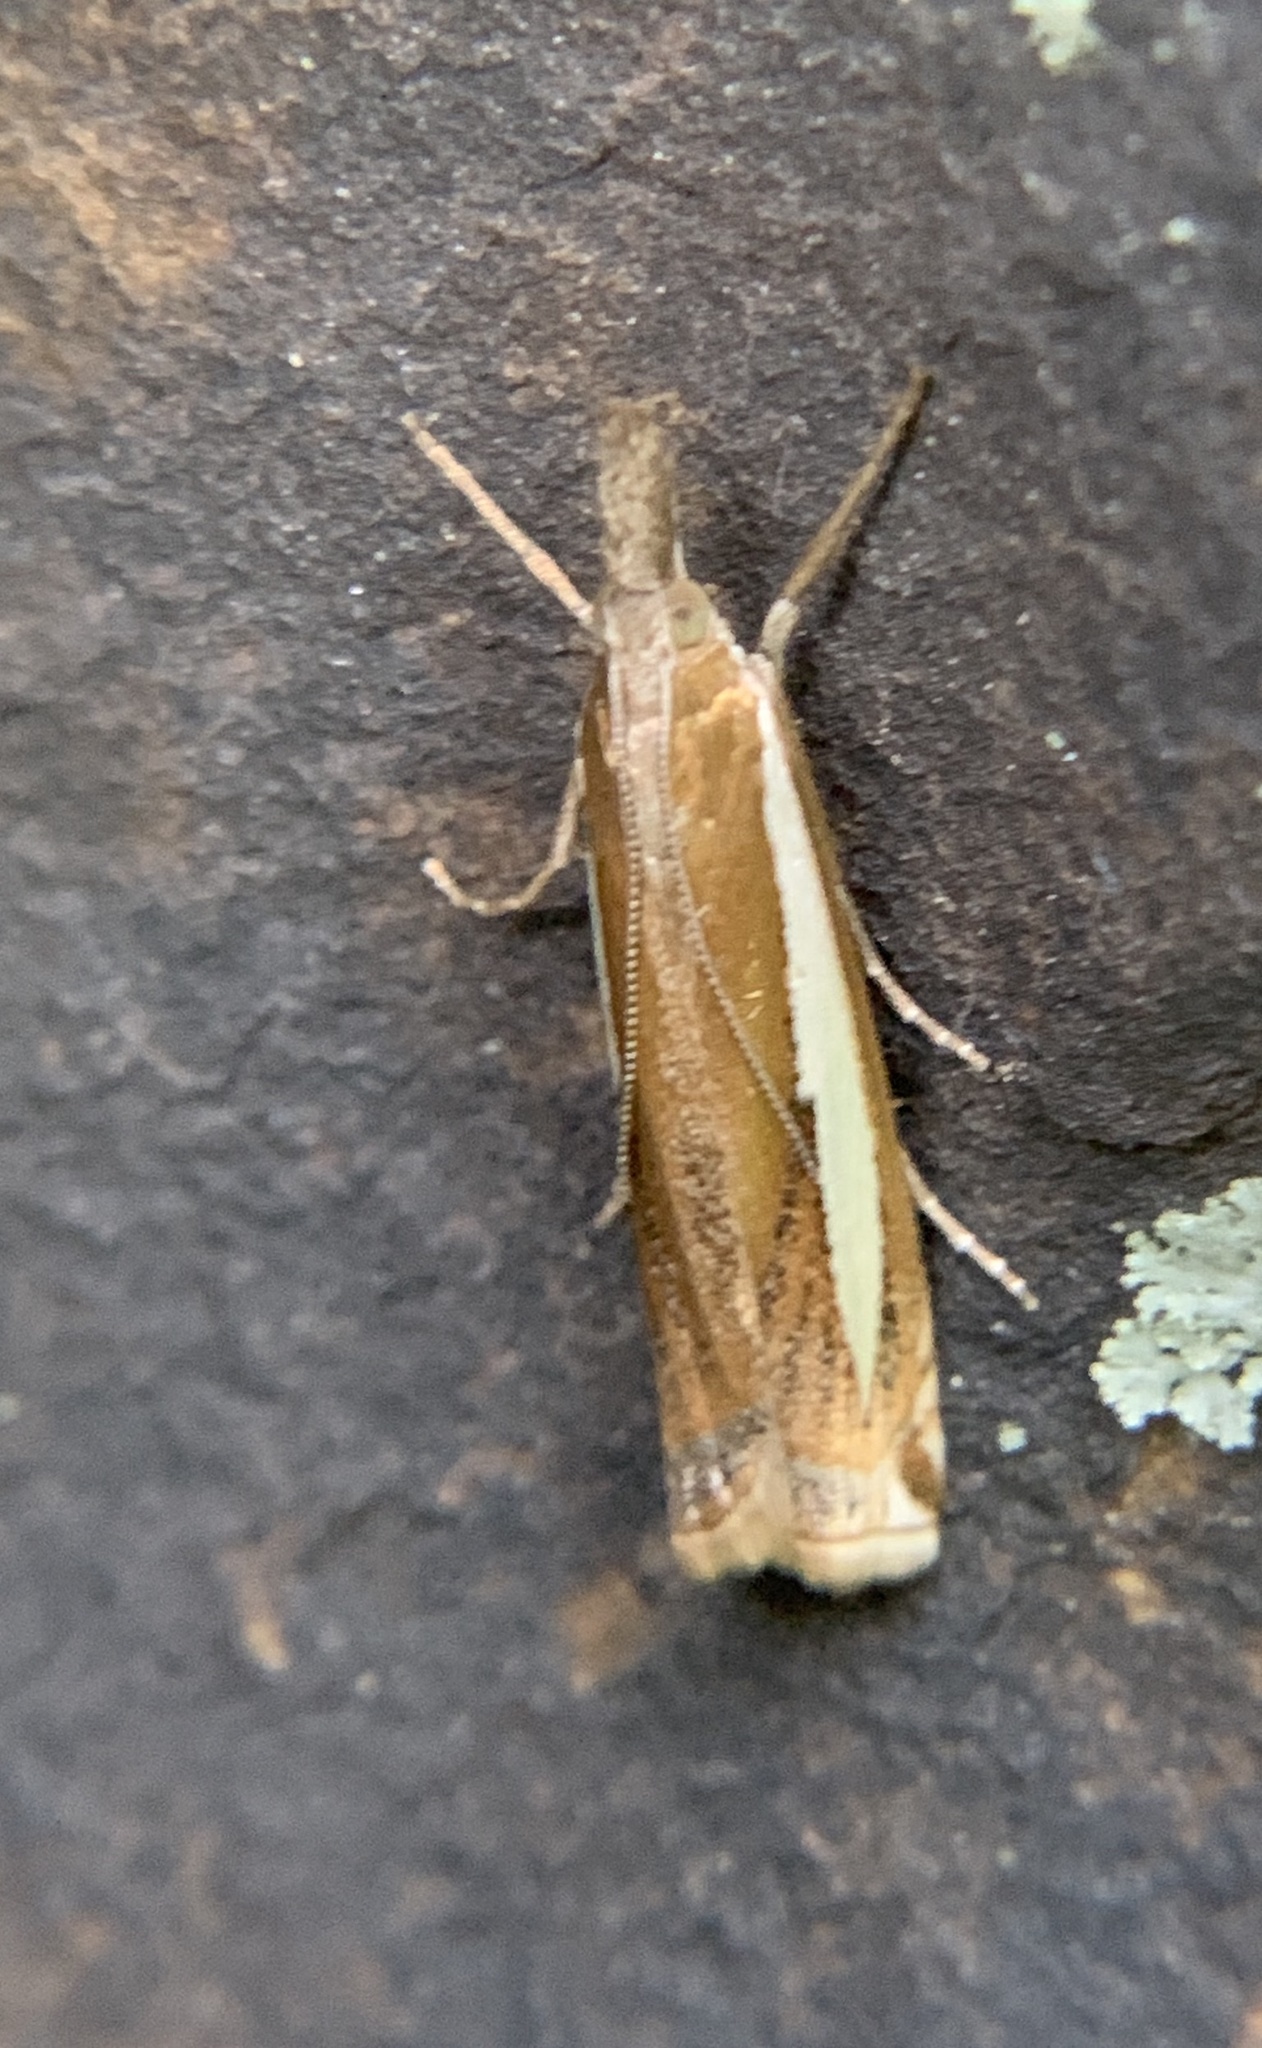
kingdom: Animalia
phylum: Arthropoda
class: Insecta
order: Lepidoptera
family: Crambidae
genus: Crambus
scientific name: Crambus praefectellus
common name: Common grass-veneer
